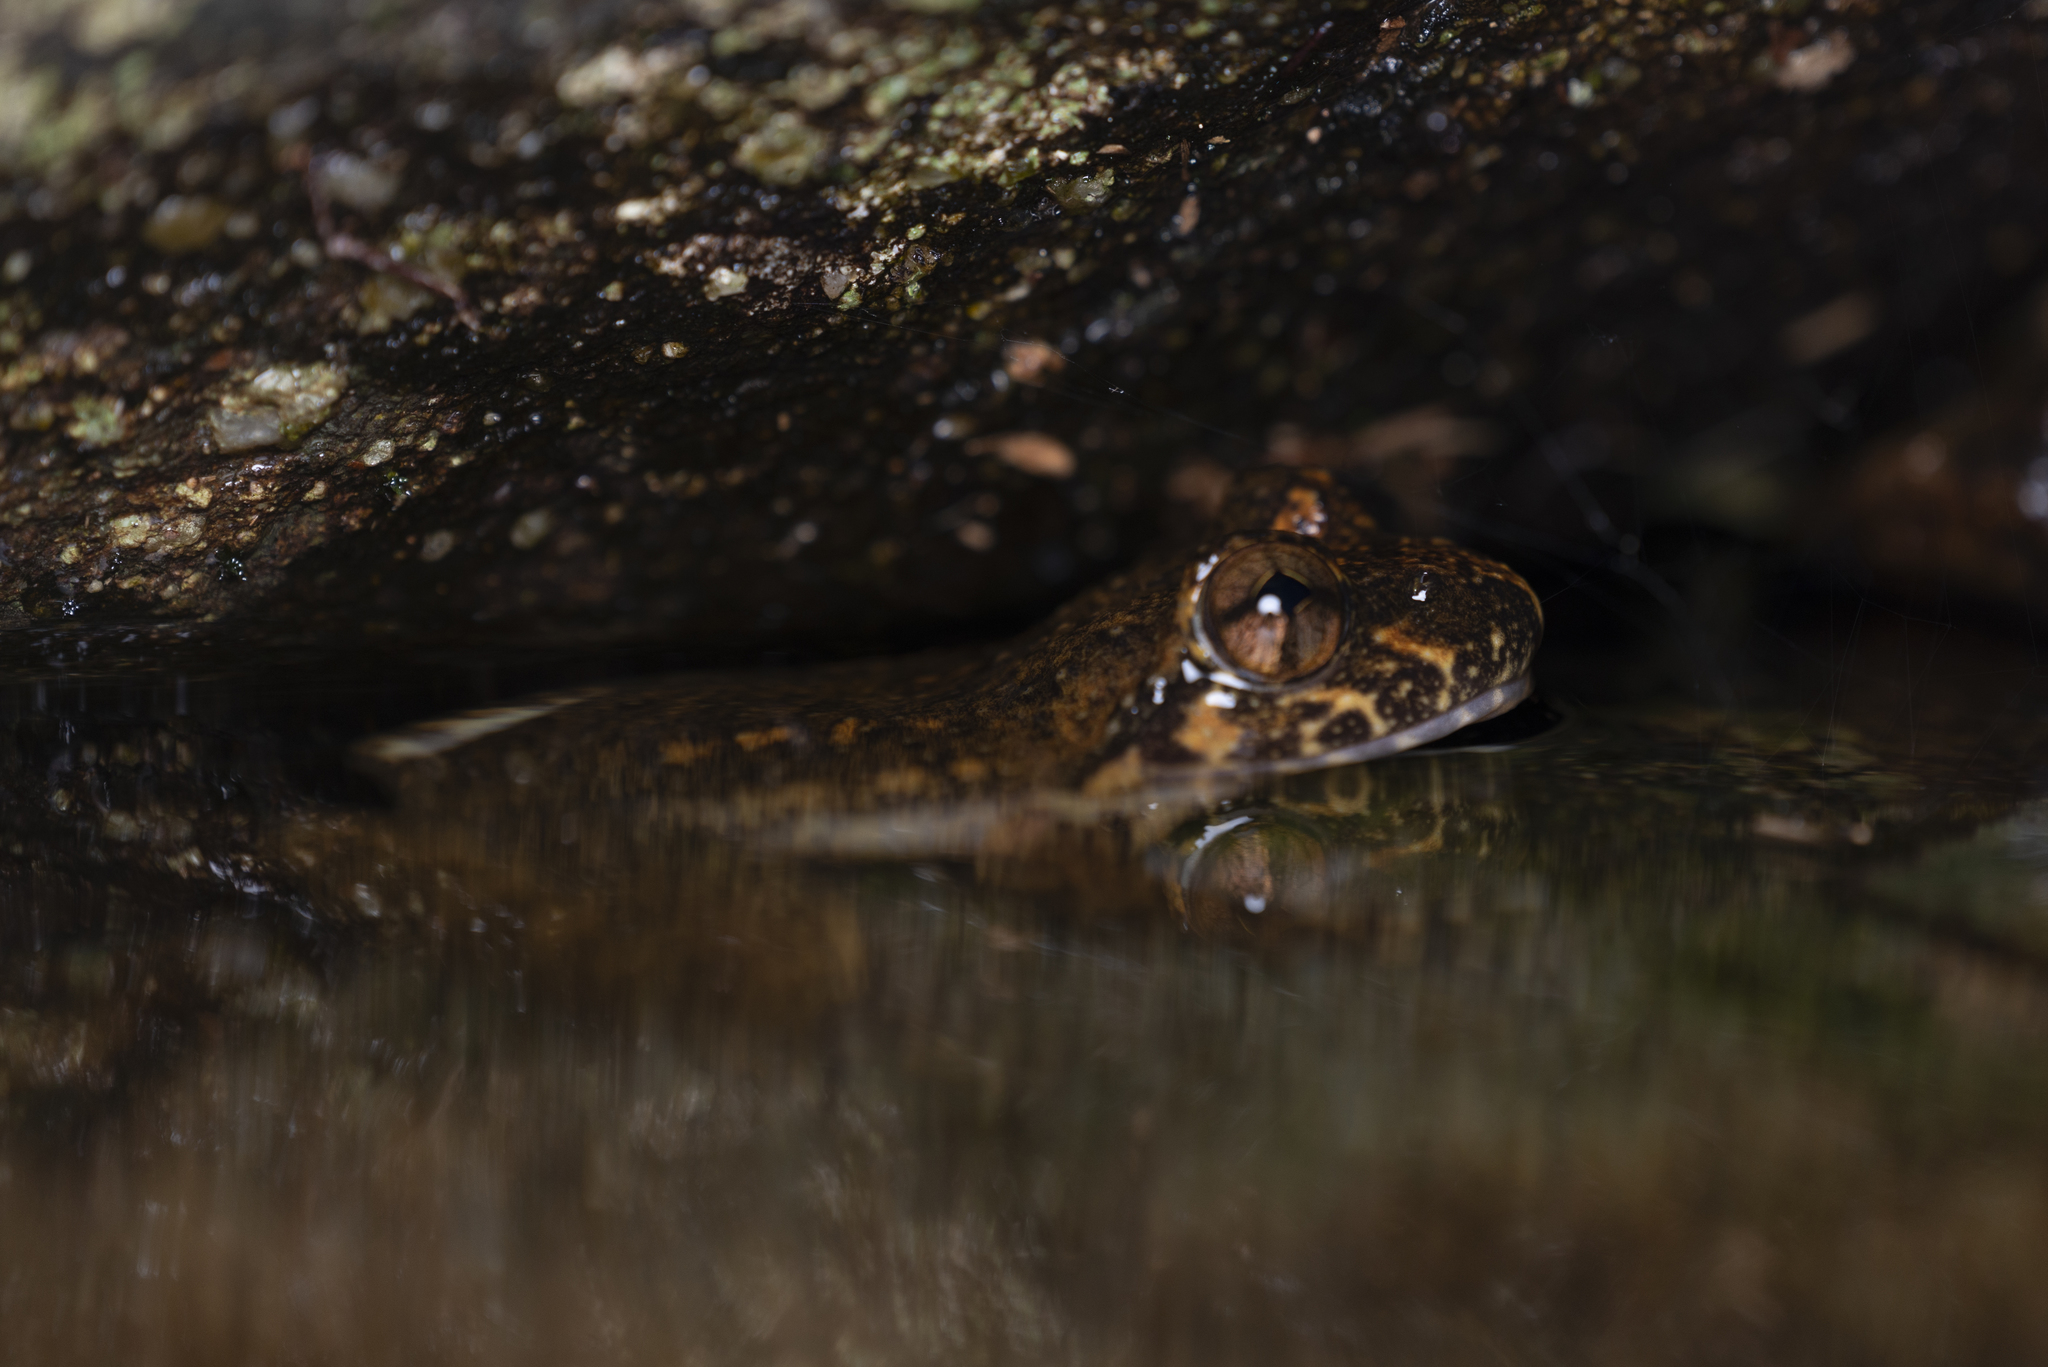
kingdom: Animalia
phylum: Chordata
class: Amphibia
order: Anura
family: Dicroglossidae
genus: Quasipaa
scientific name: Quasipaa exilispinosa
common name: Hong kong paa frog
